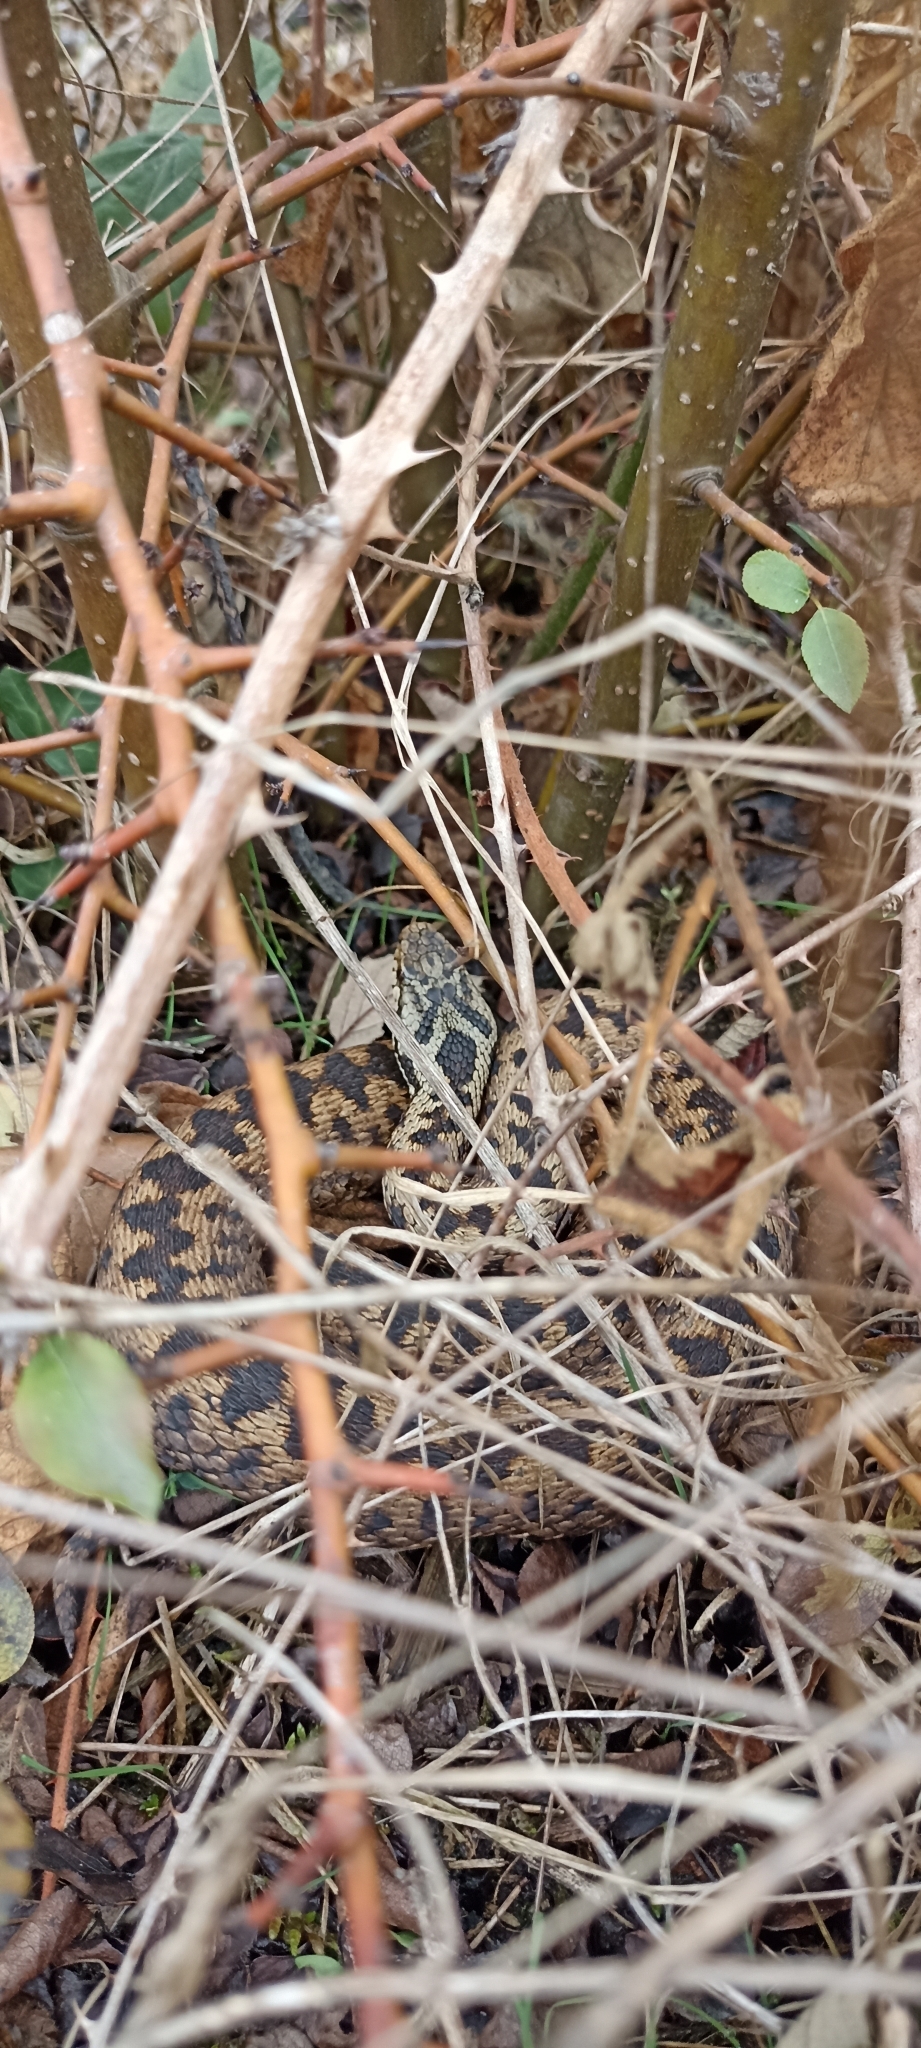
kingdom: Animalia
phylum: Chordata
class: Squamata
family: Viperidae
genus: Vipera
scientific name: Vipera berus
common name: Adder
